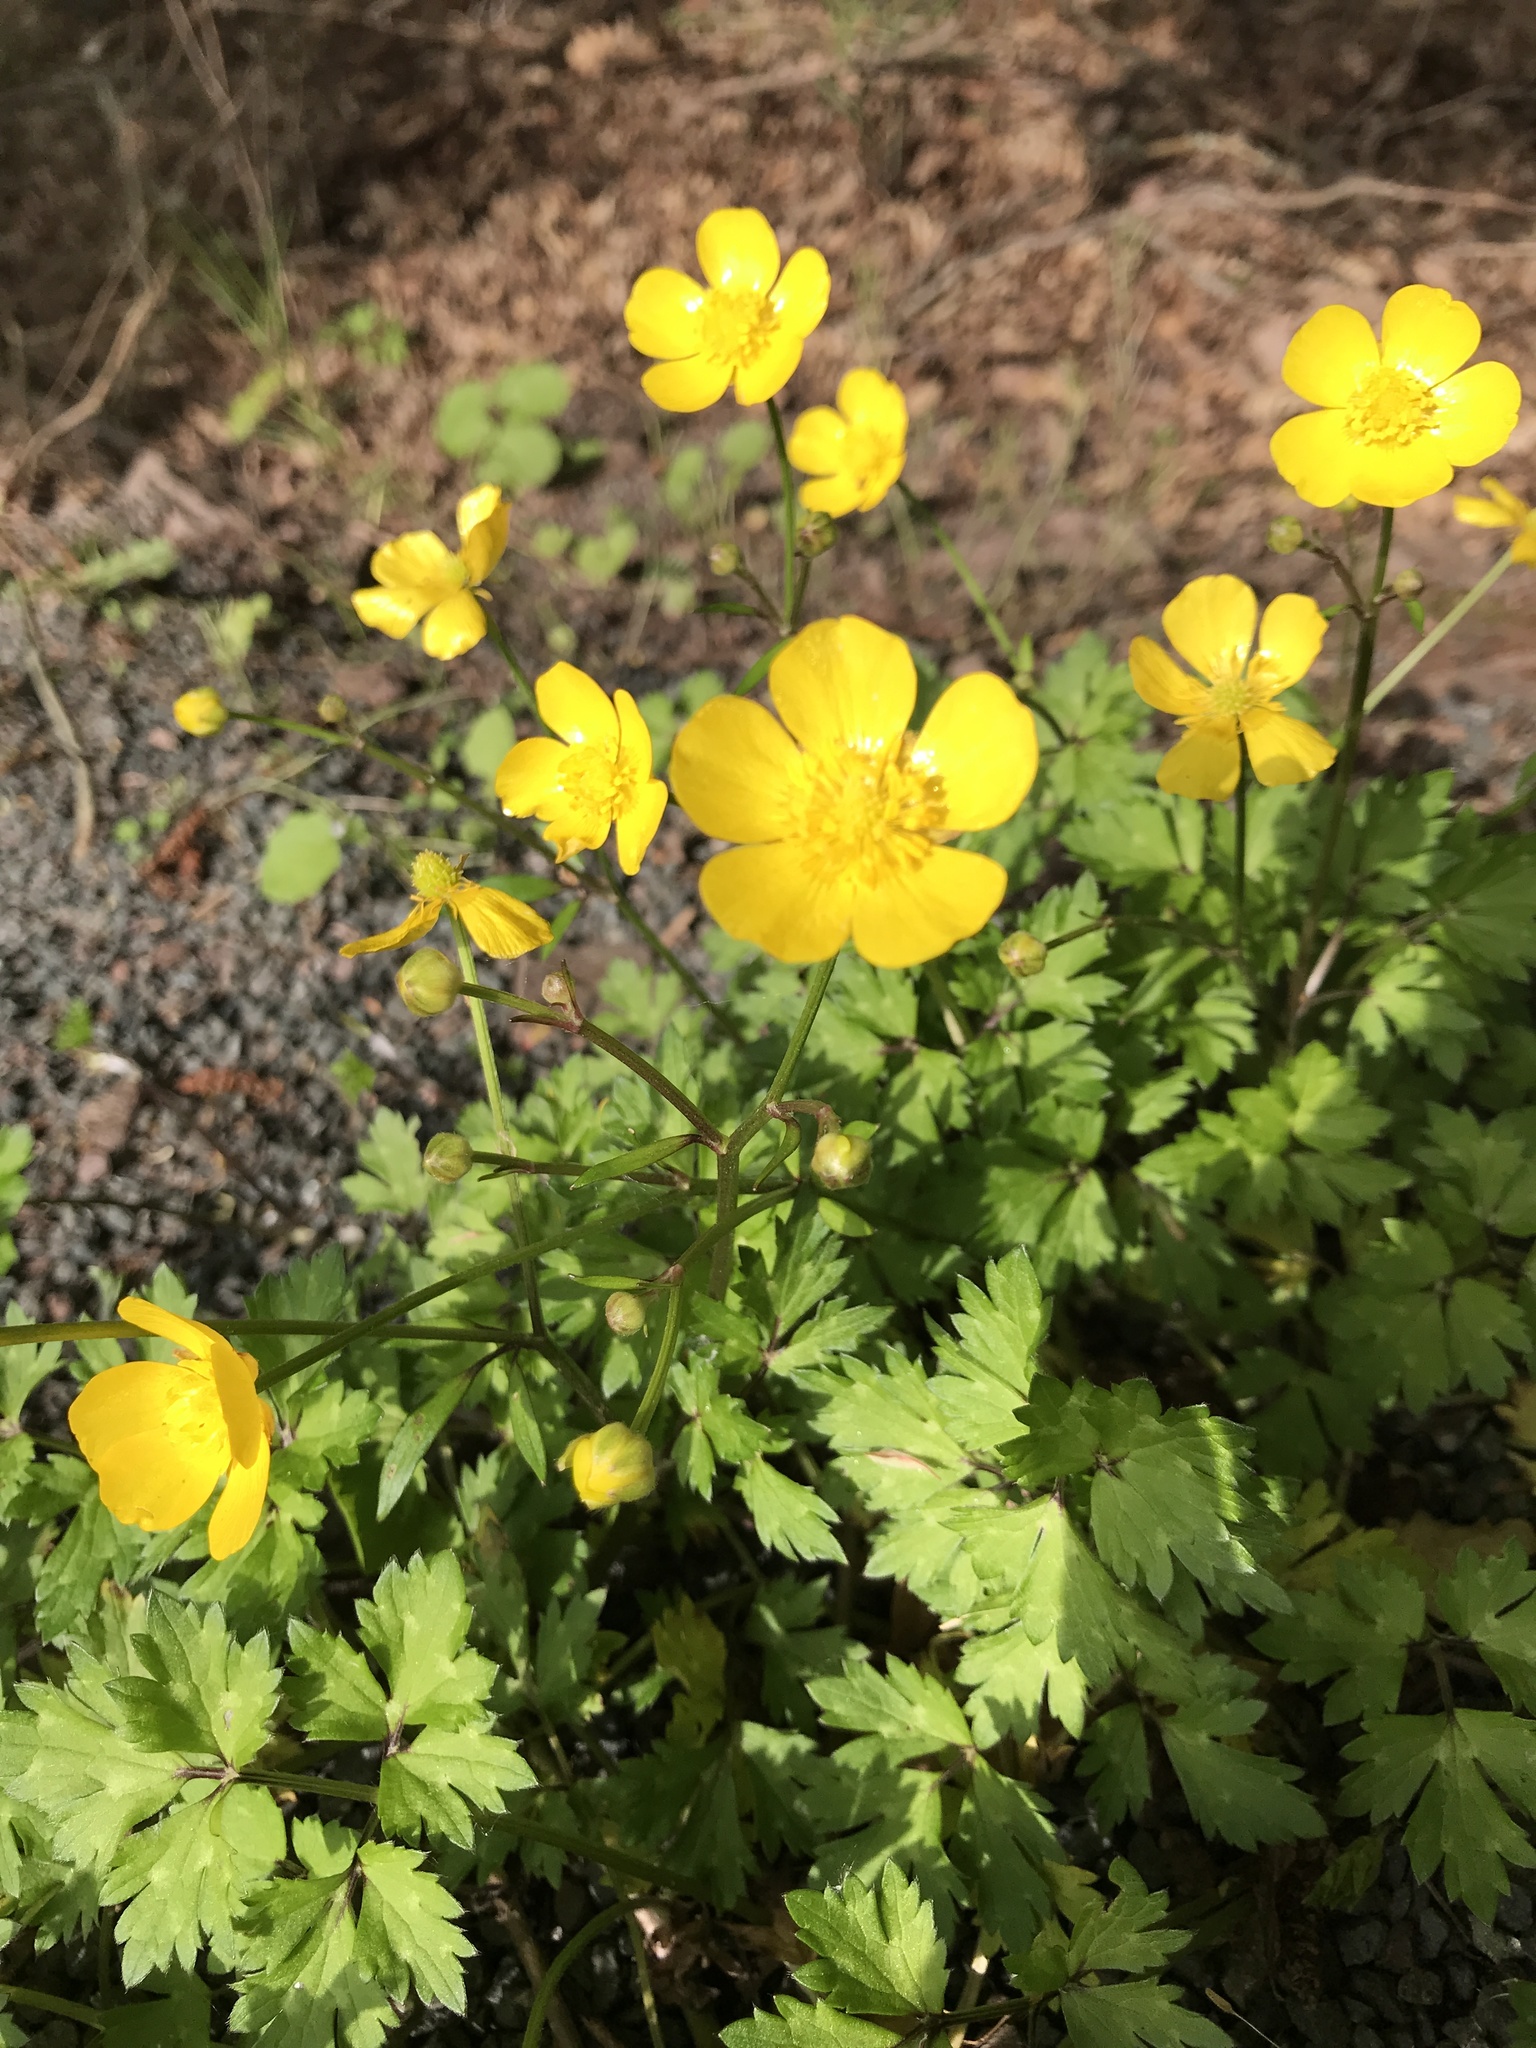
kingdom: Plantae
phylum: Tracheophyta
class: Magnoliopsida
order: Ranunculales
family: Ranunculaceae
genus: Ranunculus
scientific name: Ranunculus repens
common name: Creeping buttercup
